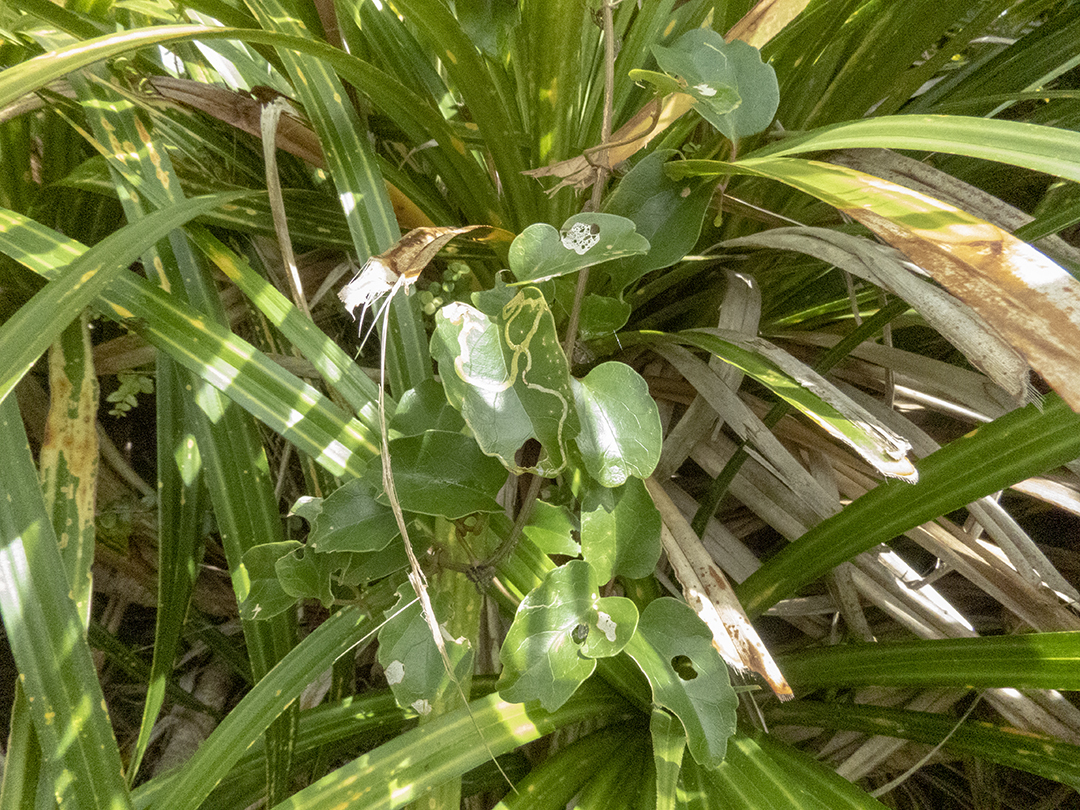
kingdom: Plantae
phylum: Tracheophyta
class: Magnoliopsida
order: Ranunculales
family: Ranunculaceae
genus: Clematis
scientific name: Clematis paniculata
